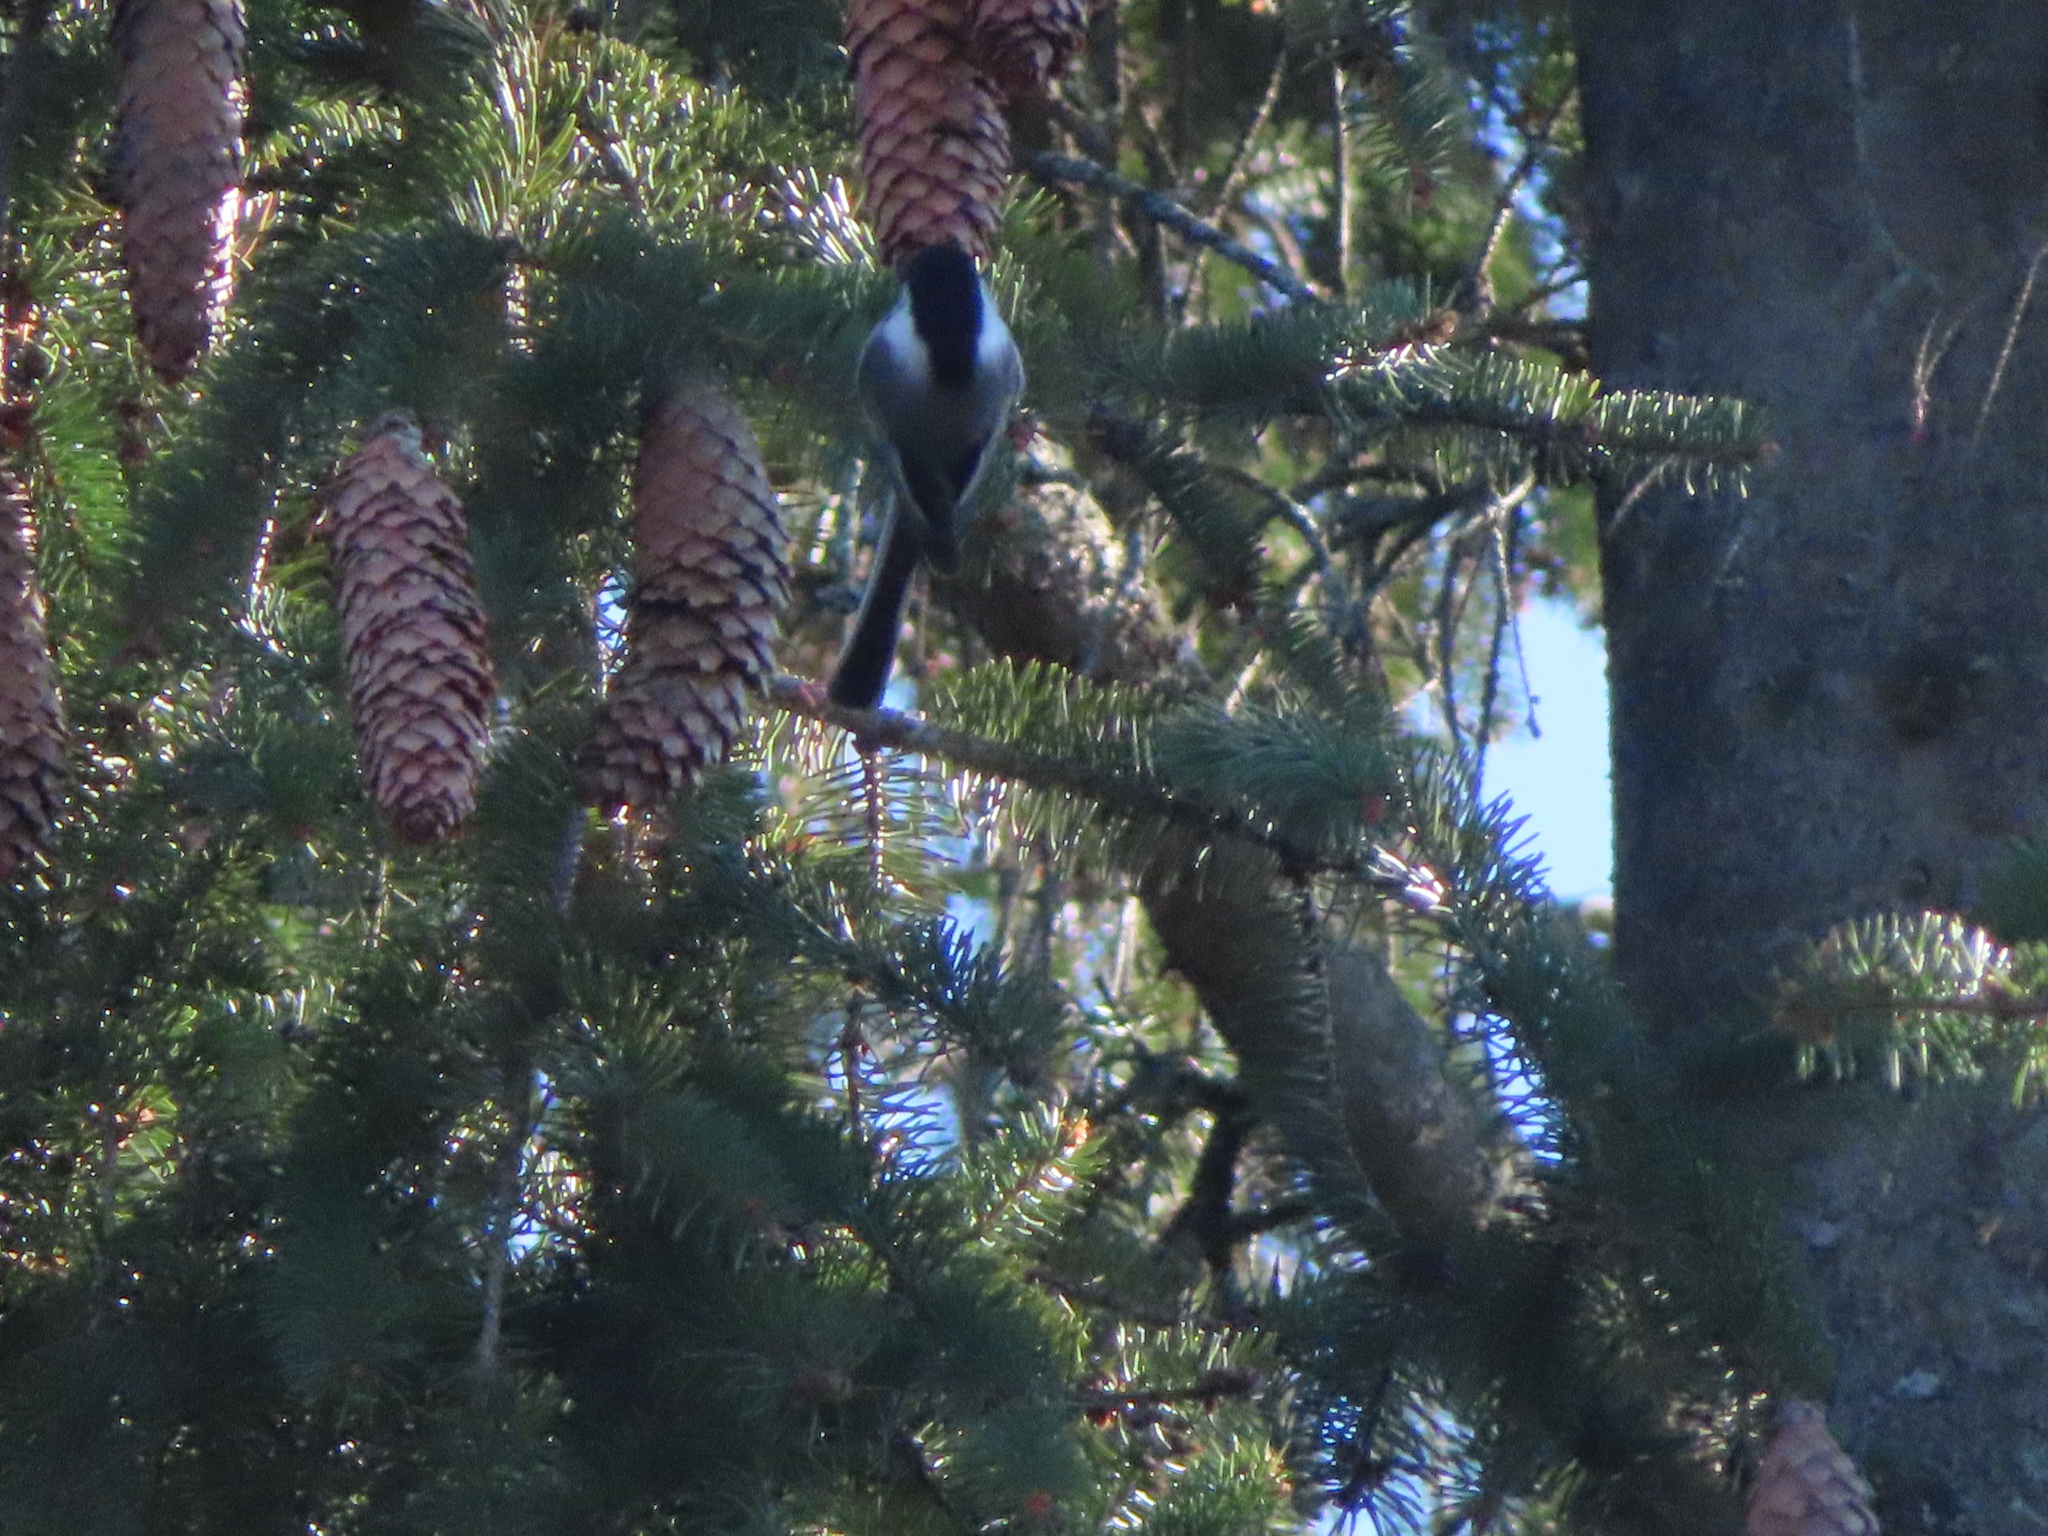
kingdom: Animalia
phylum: Chordata
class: Aves
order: Passeriformes
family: Paridae
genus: Poecile
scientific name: Poecile atricapillus
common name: Black-capped chickadee
